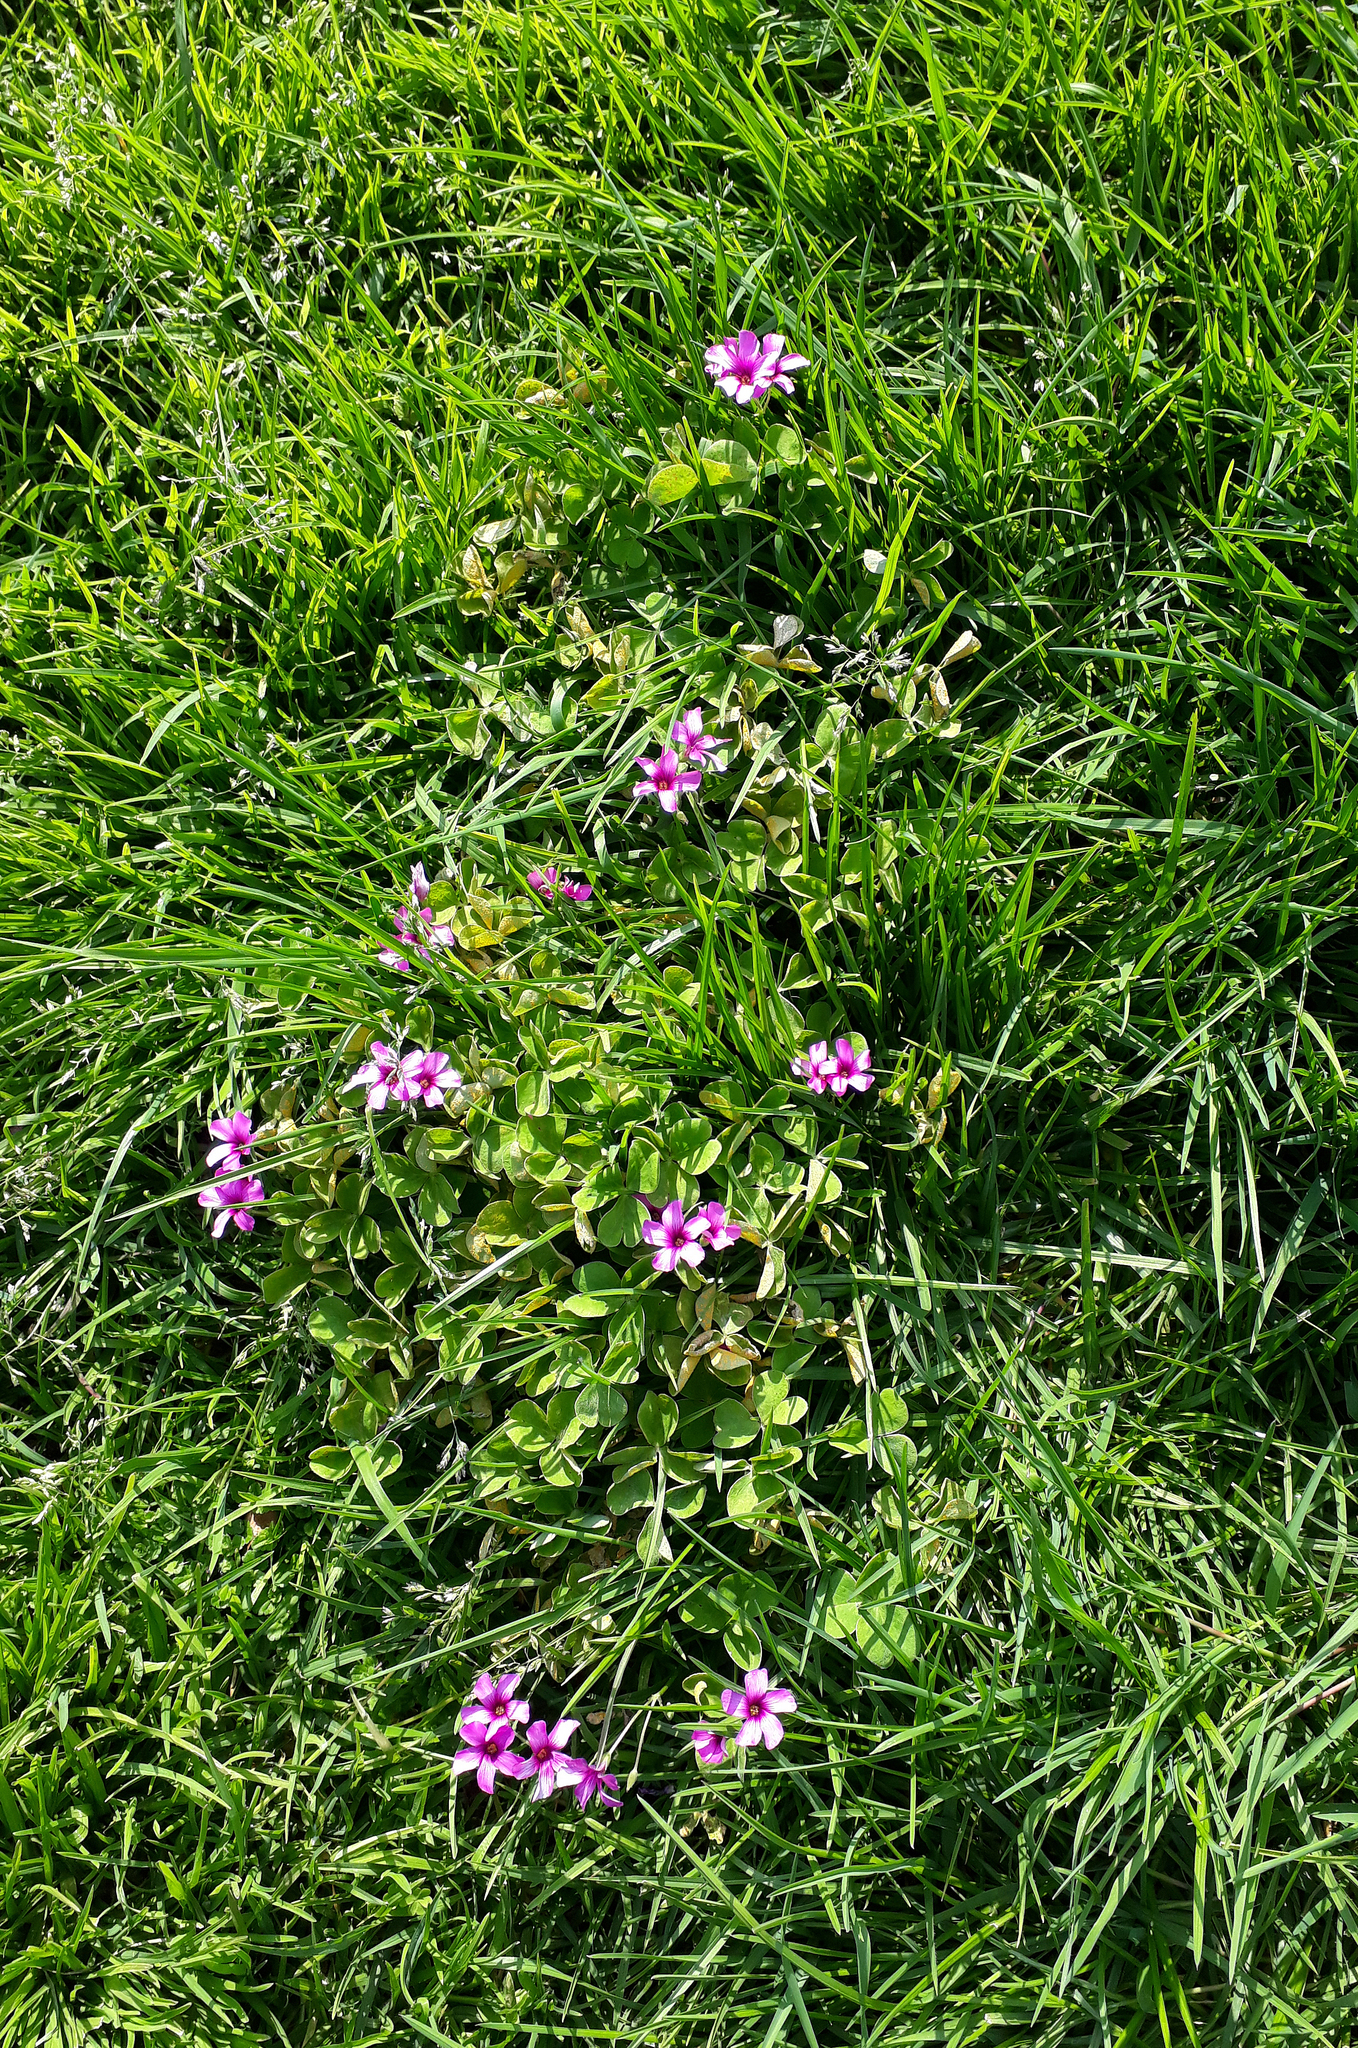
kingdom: Plantae
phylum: Tracheophyta
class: Magnoliopsida
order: Oxalidales
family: Oxalidaceae
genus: Oxalis
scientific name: Oxalis articulata
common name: Pink-sorrel
